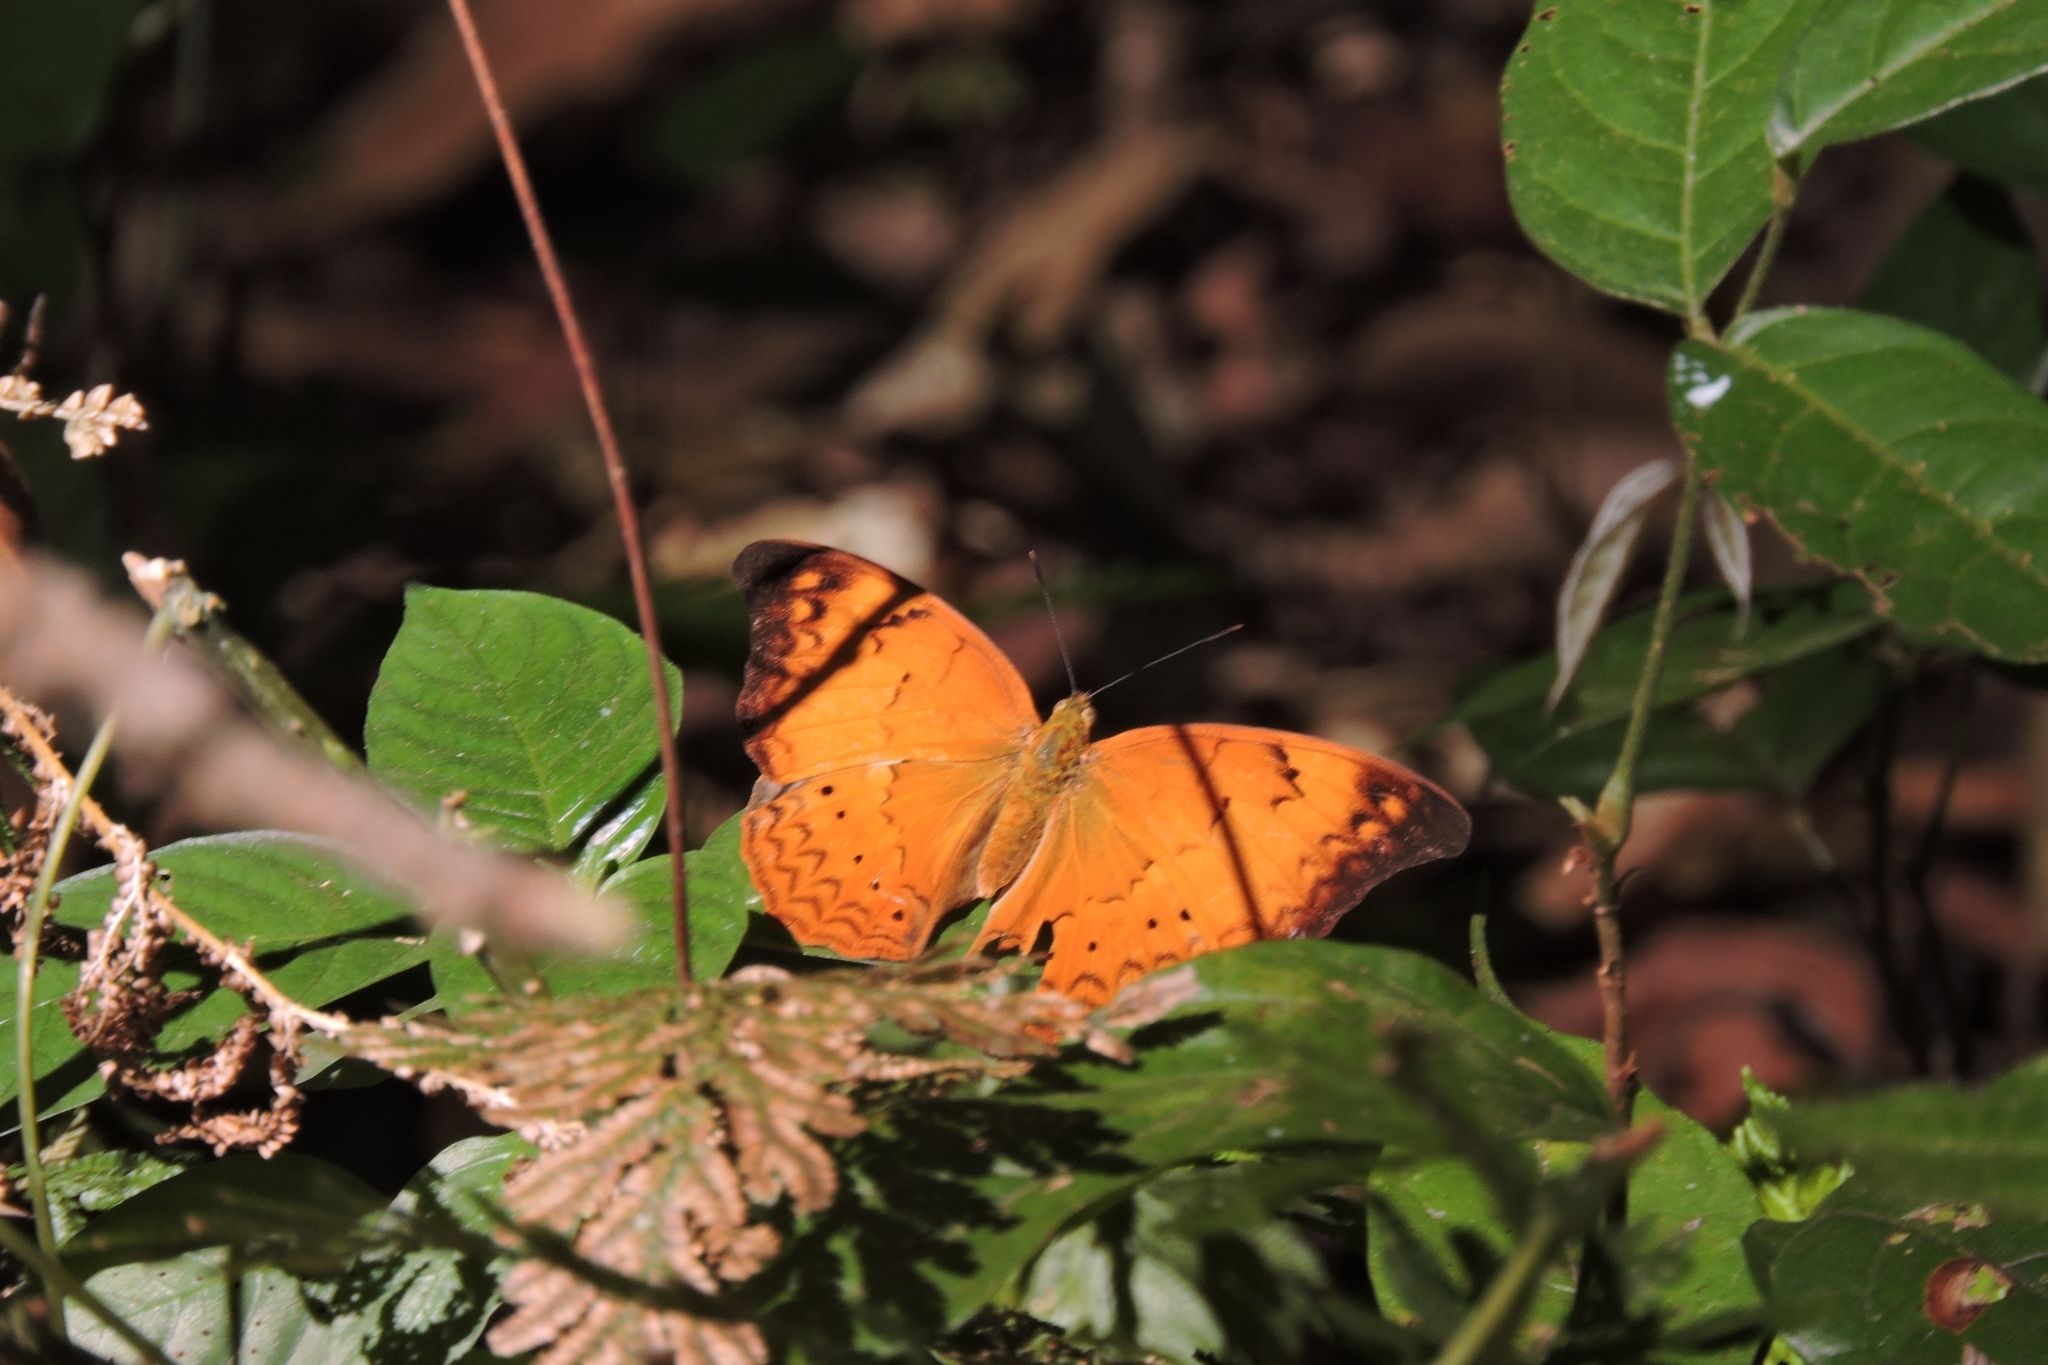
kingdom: Animalia
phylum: Arthropoda
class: Insecta
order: Lepidoptera
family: Nymphalidae
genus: Cirrochroa
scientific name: Cirrochroa thais
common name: Tamil yeoman
